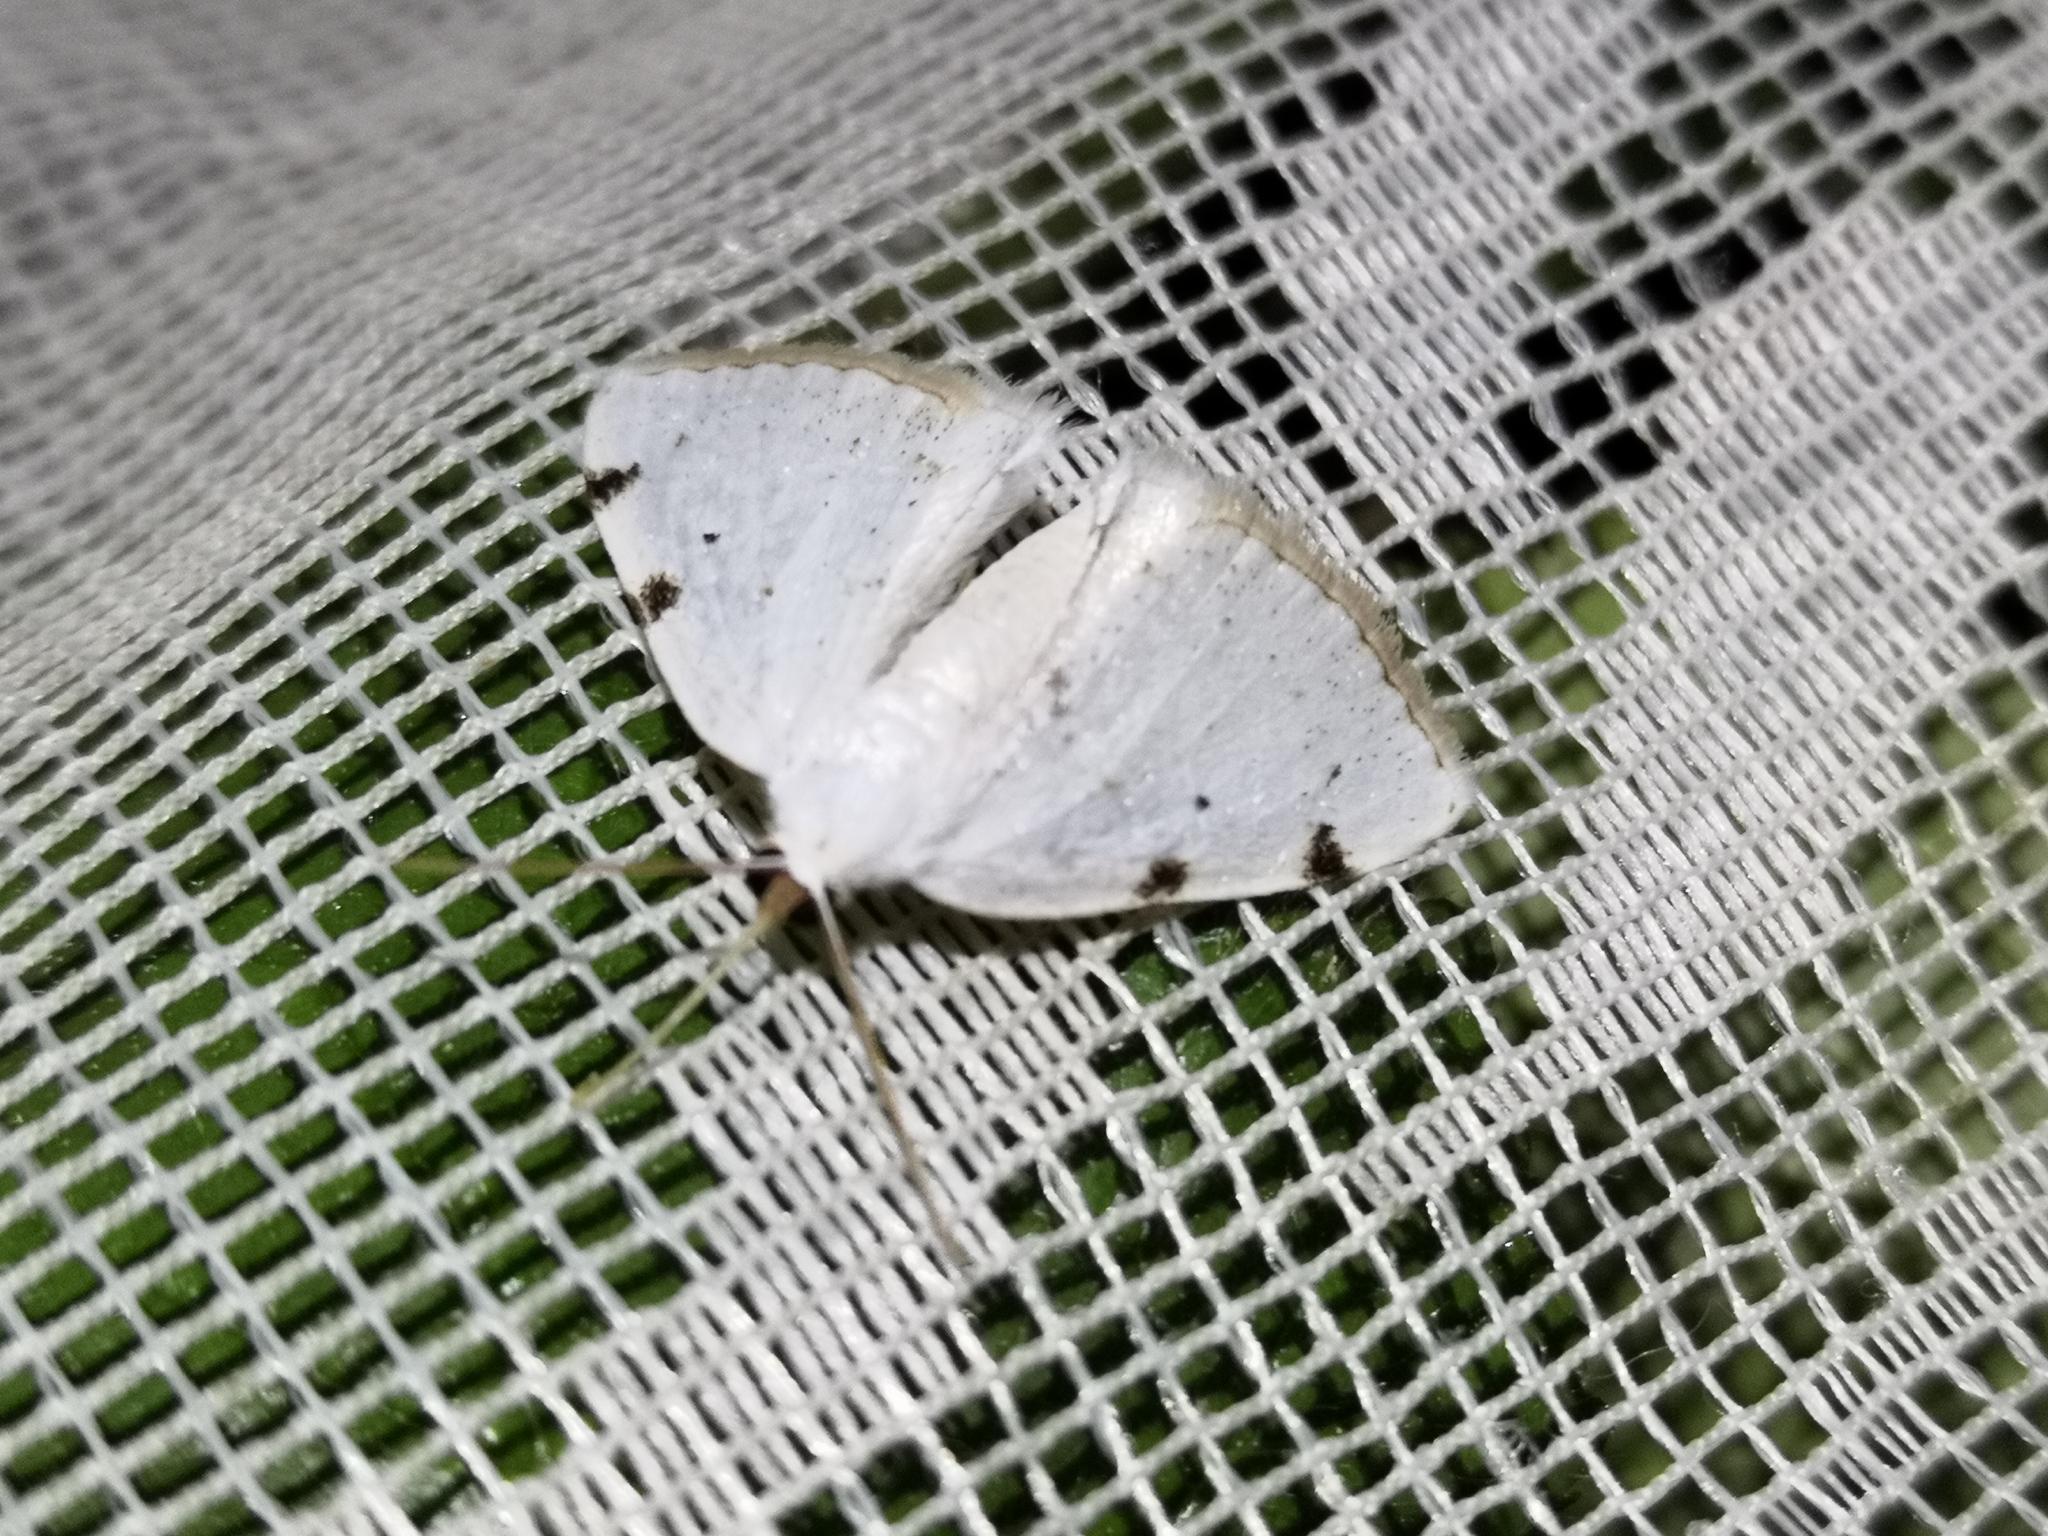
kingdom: Animalia
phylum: Arthropoda
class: Insecta
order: Lepidoptera
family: Geometridae
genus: Lomographa
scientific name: Lomographa bimaculata
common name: White-pinion spotted
